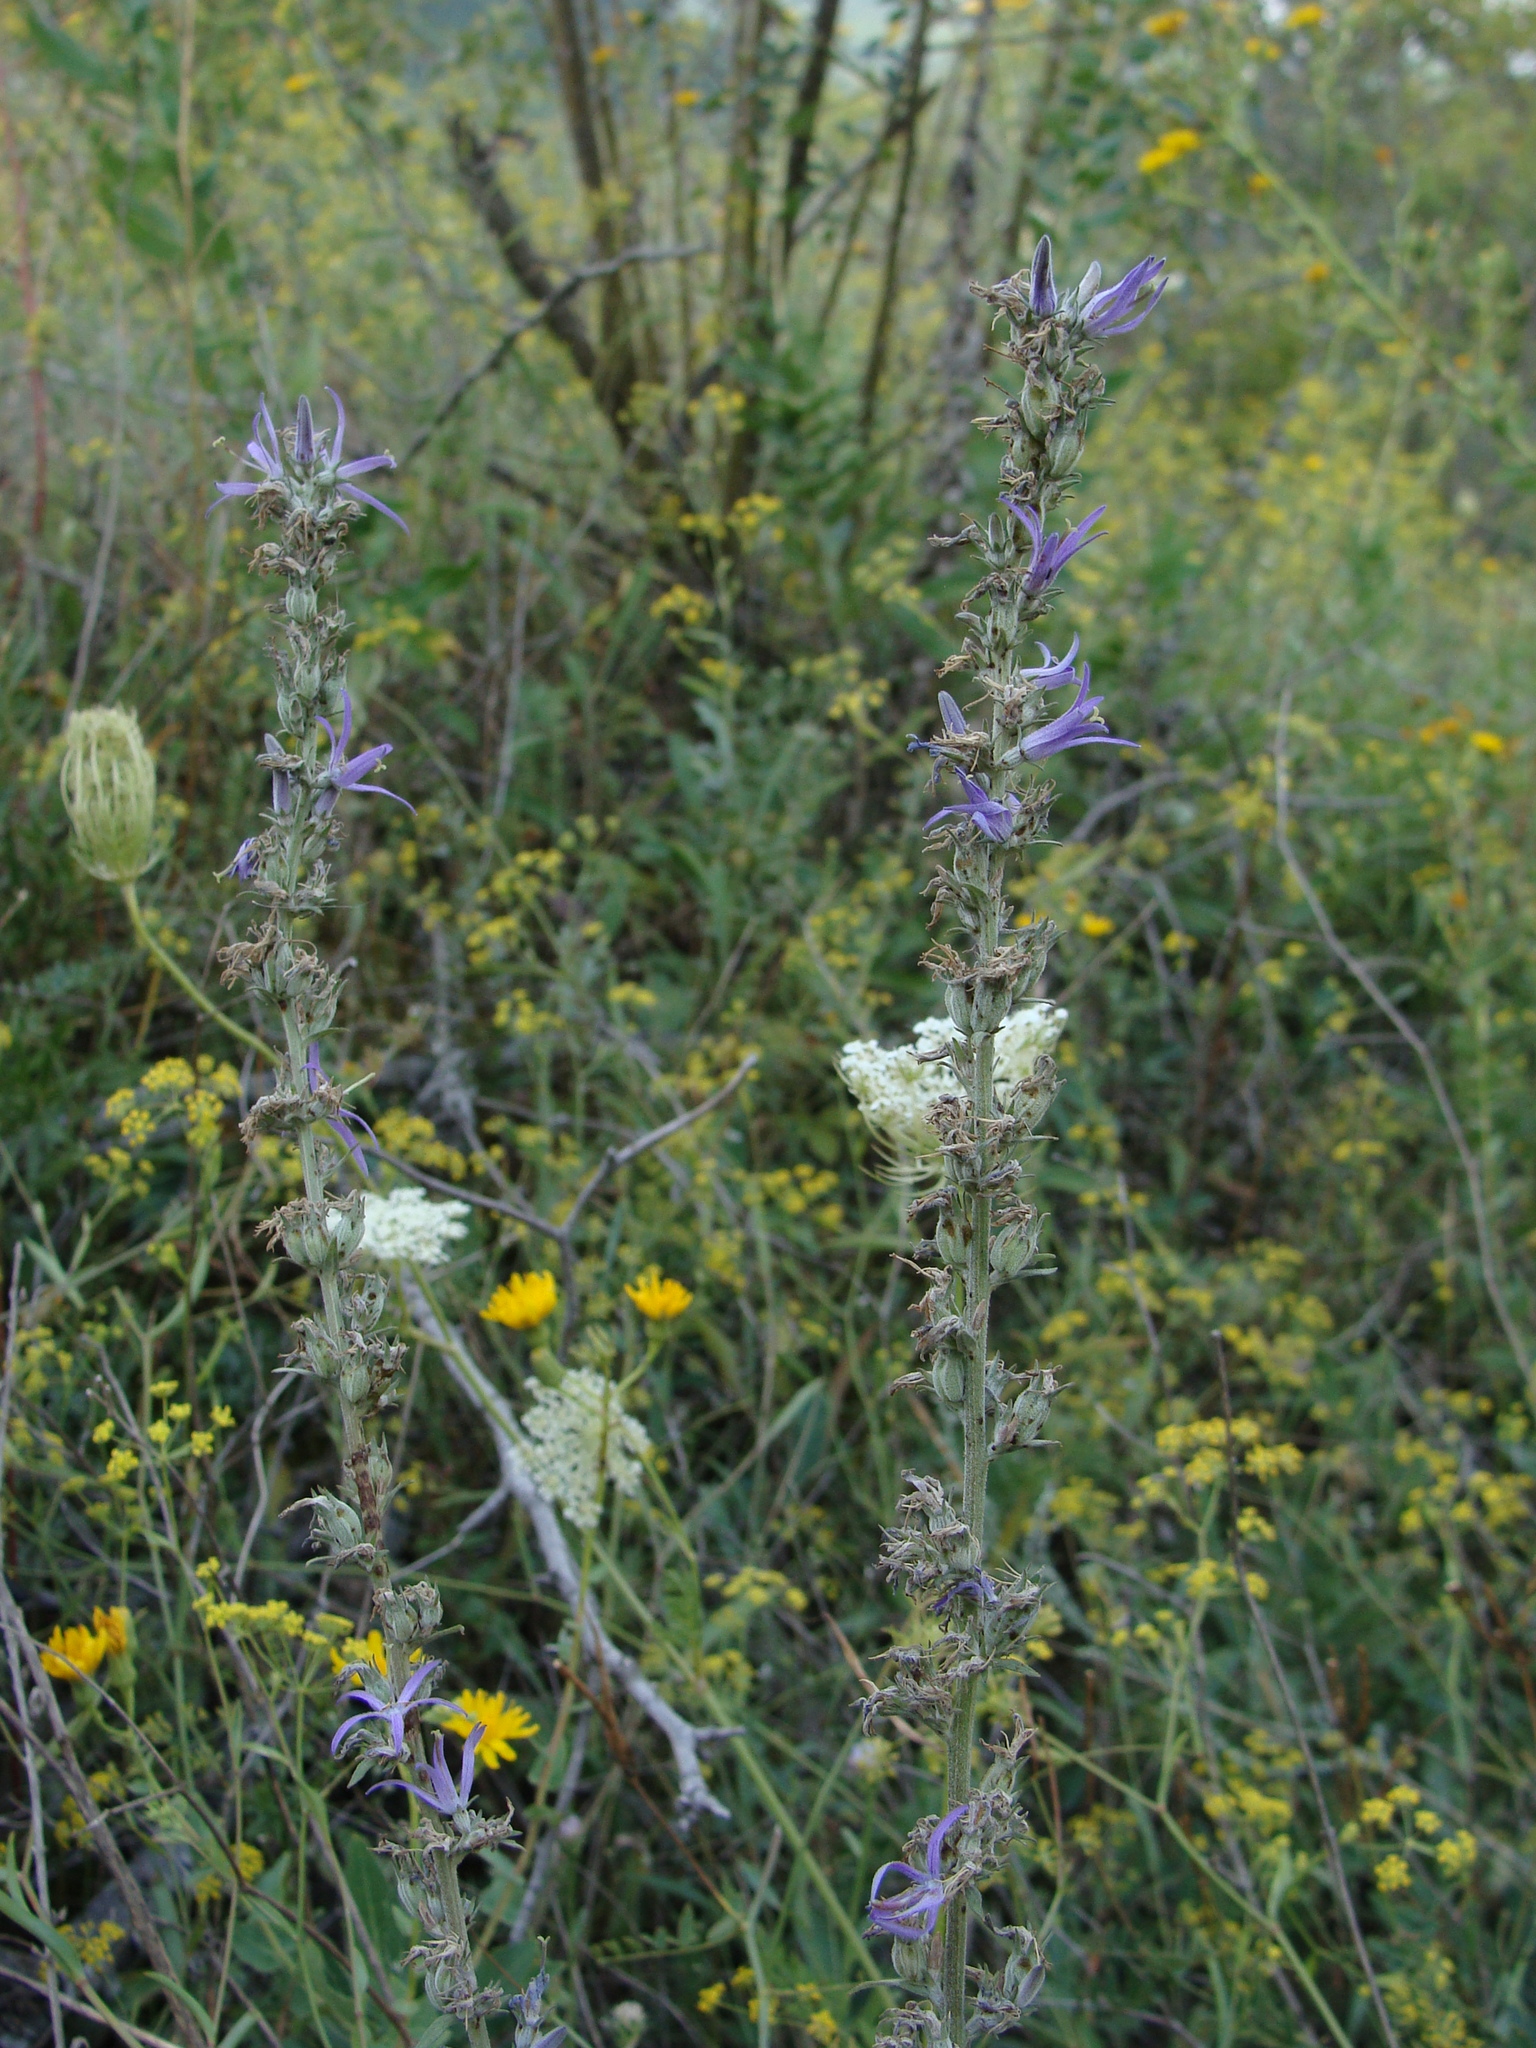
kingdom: Plantae
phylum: Tracheophyta
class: Magnoliopsida
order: Asterales
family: Campanulaceae
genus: Asyneuma
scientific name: Asyneuma canescens
